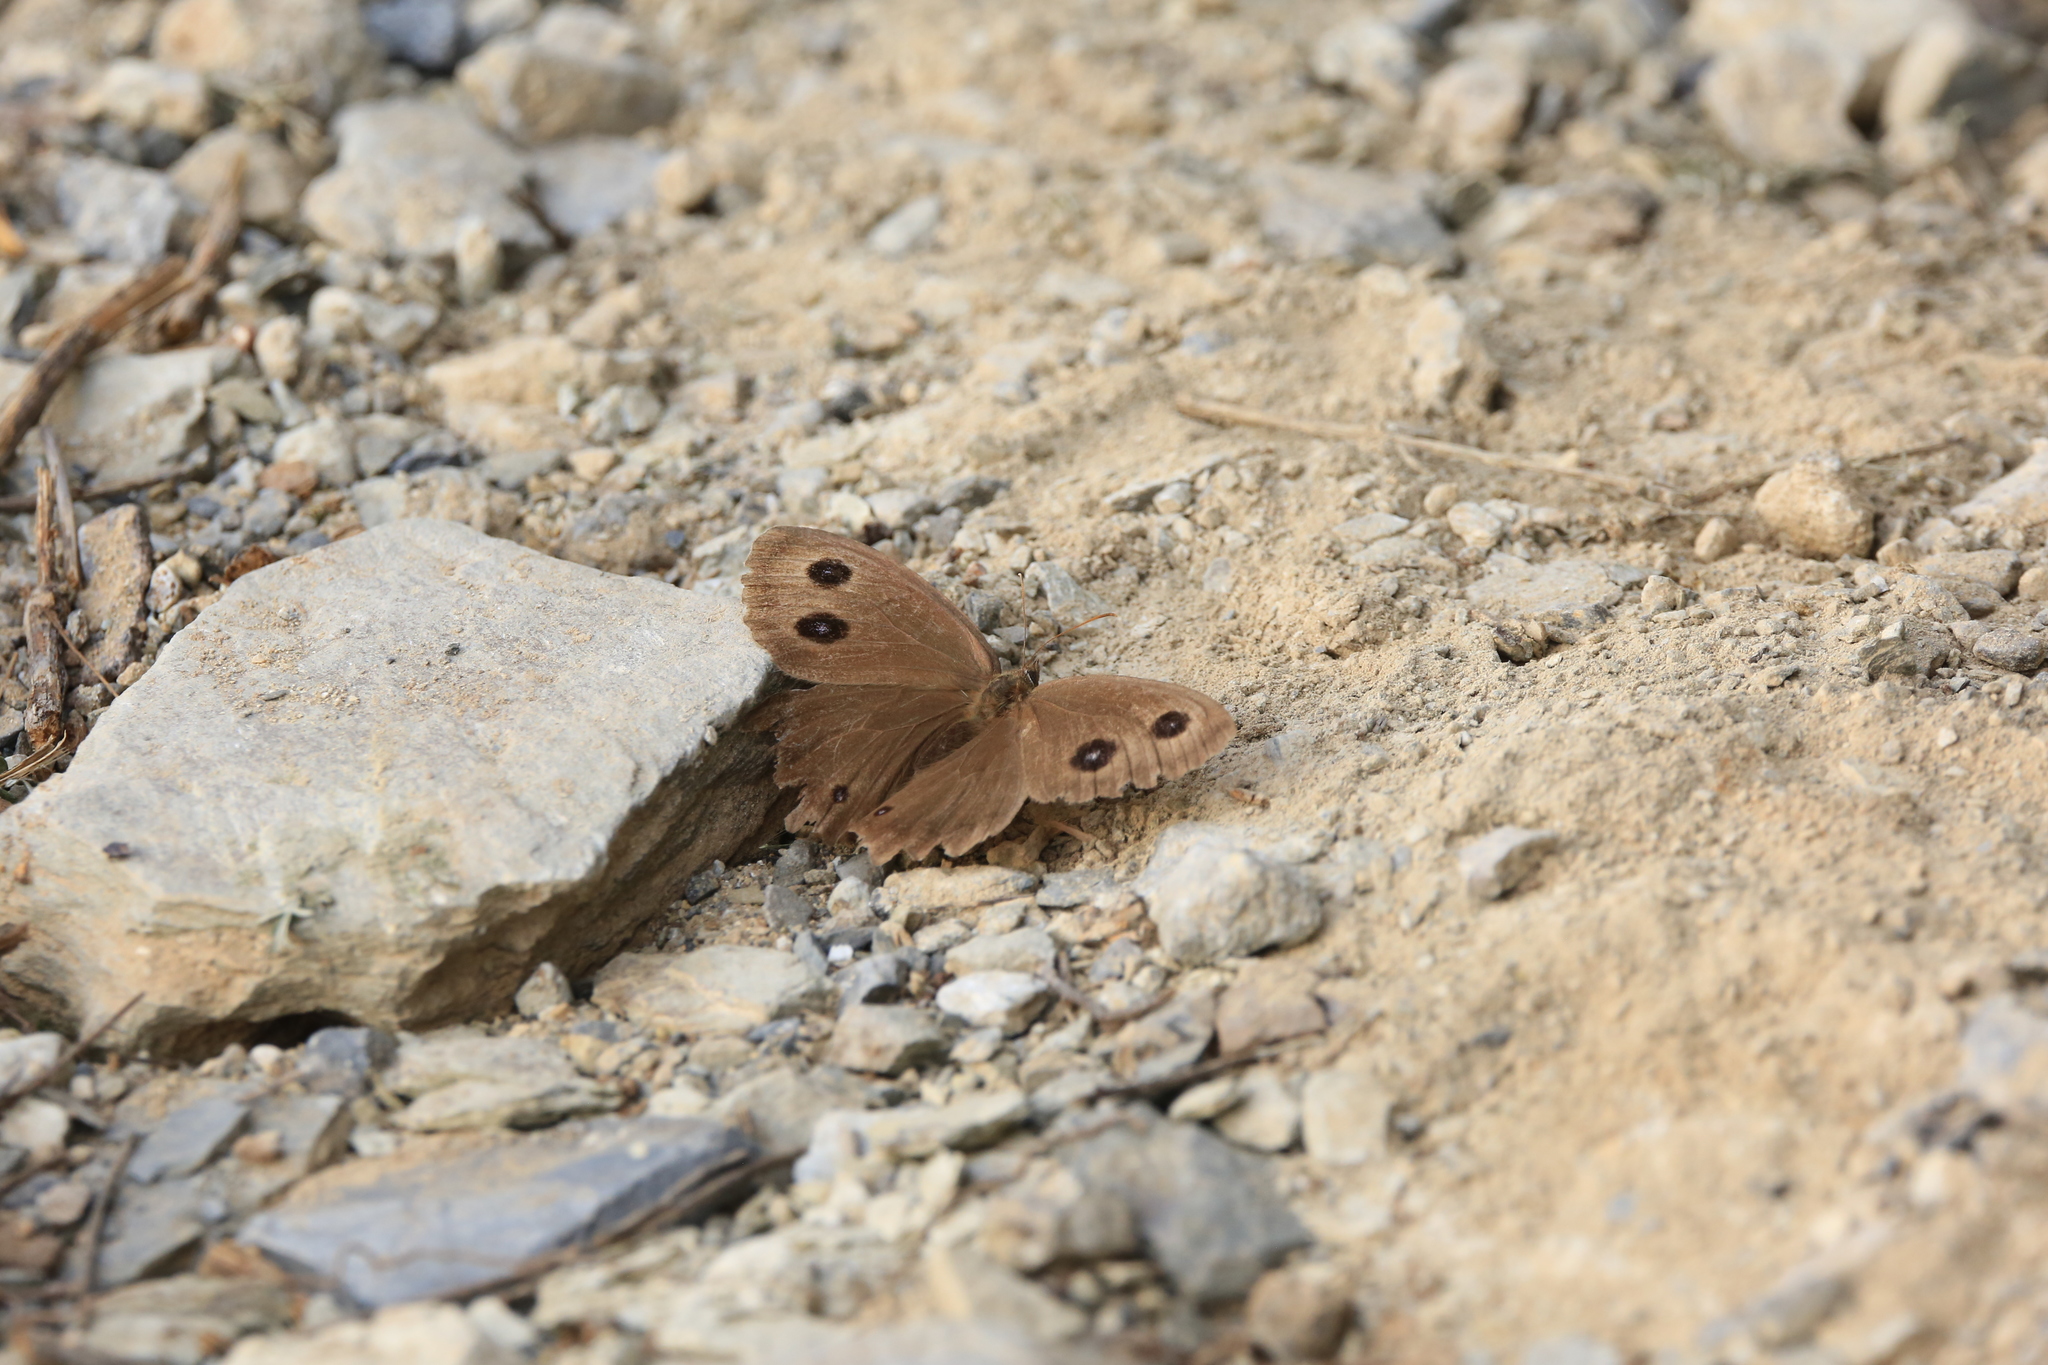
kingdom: Animalia
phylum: Arthropoda
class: Insecta
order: Lepidoptera
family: Nymphalidae
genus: Minois
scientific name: Minois dryas
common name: Dryad
